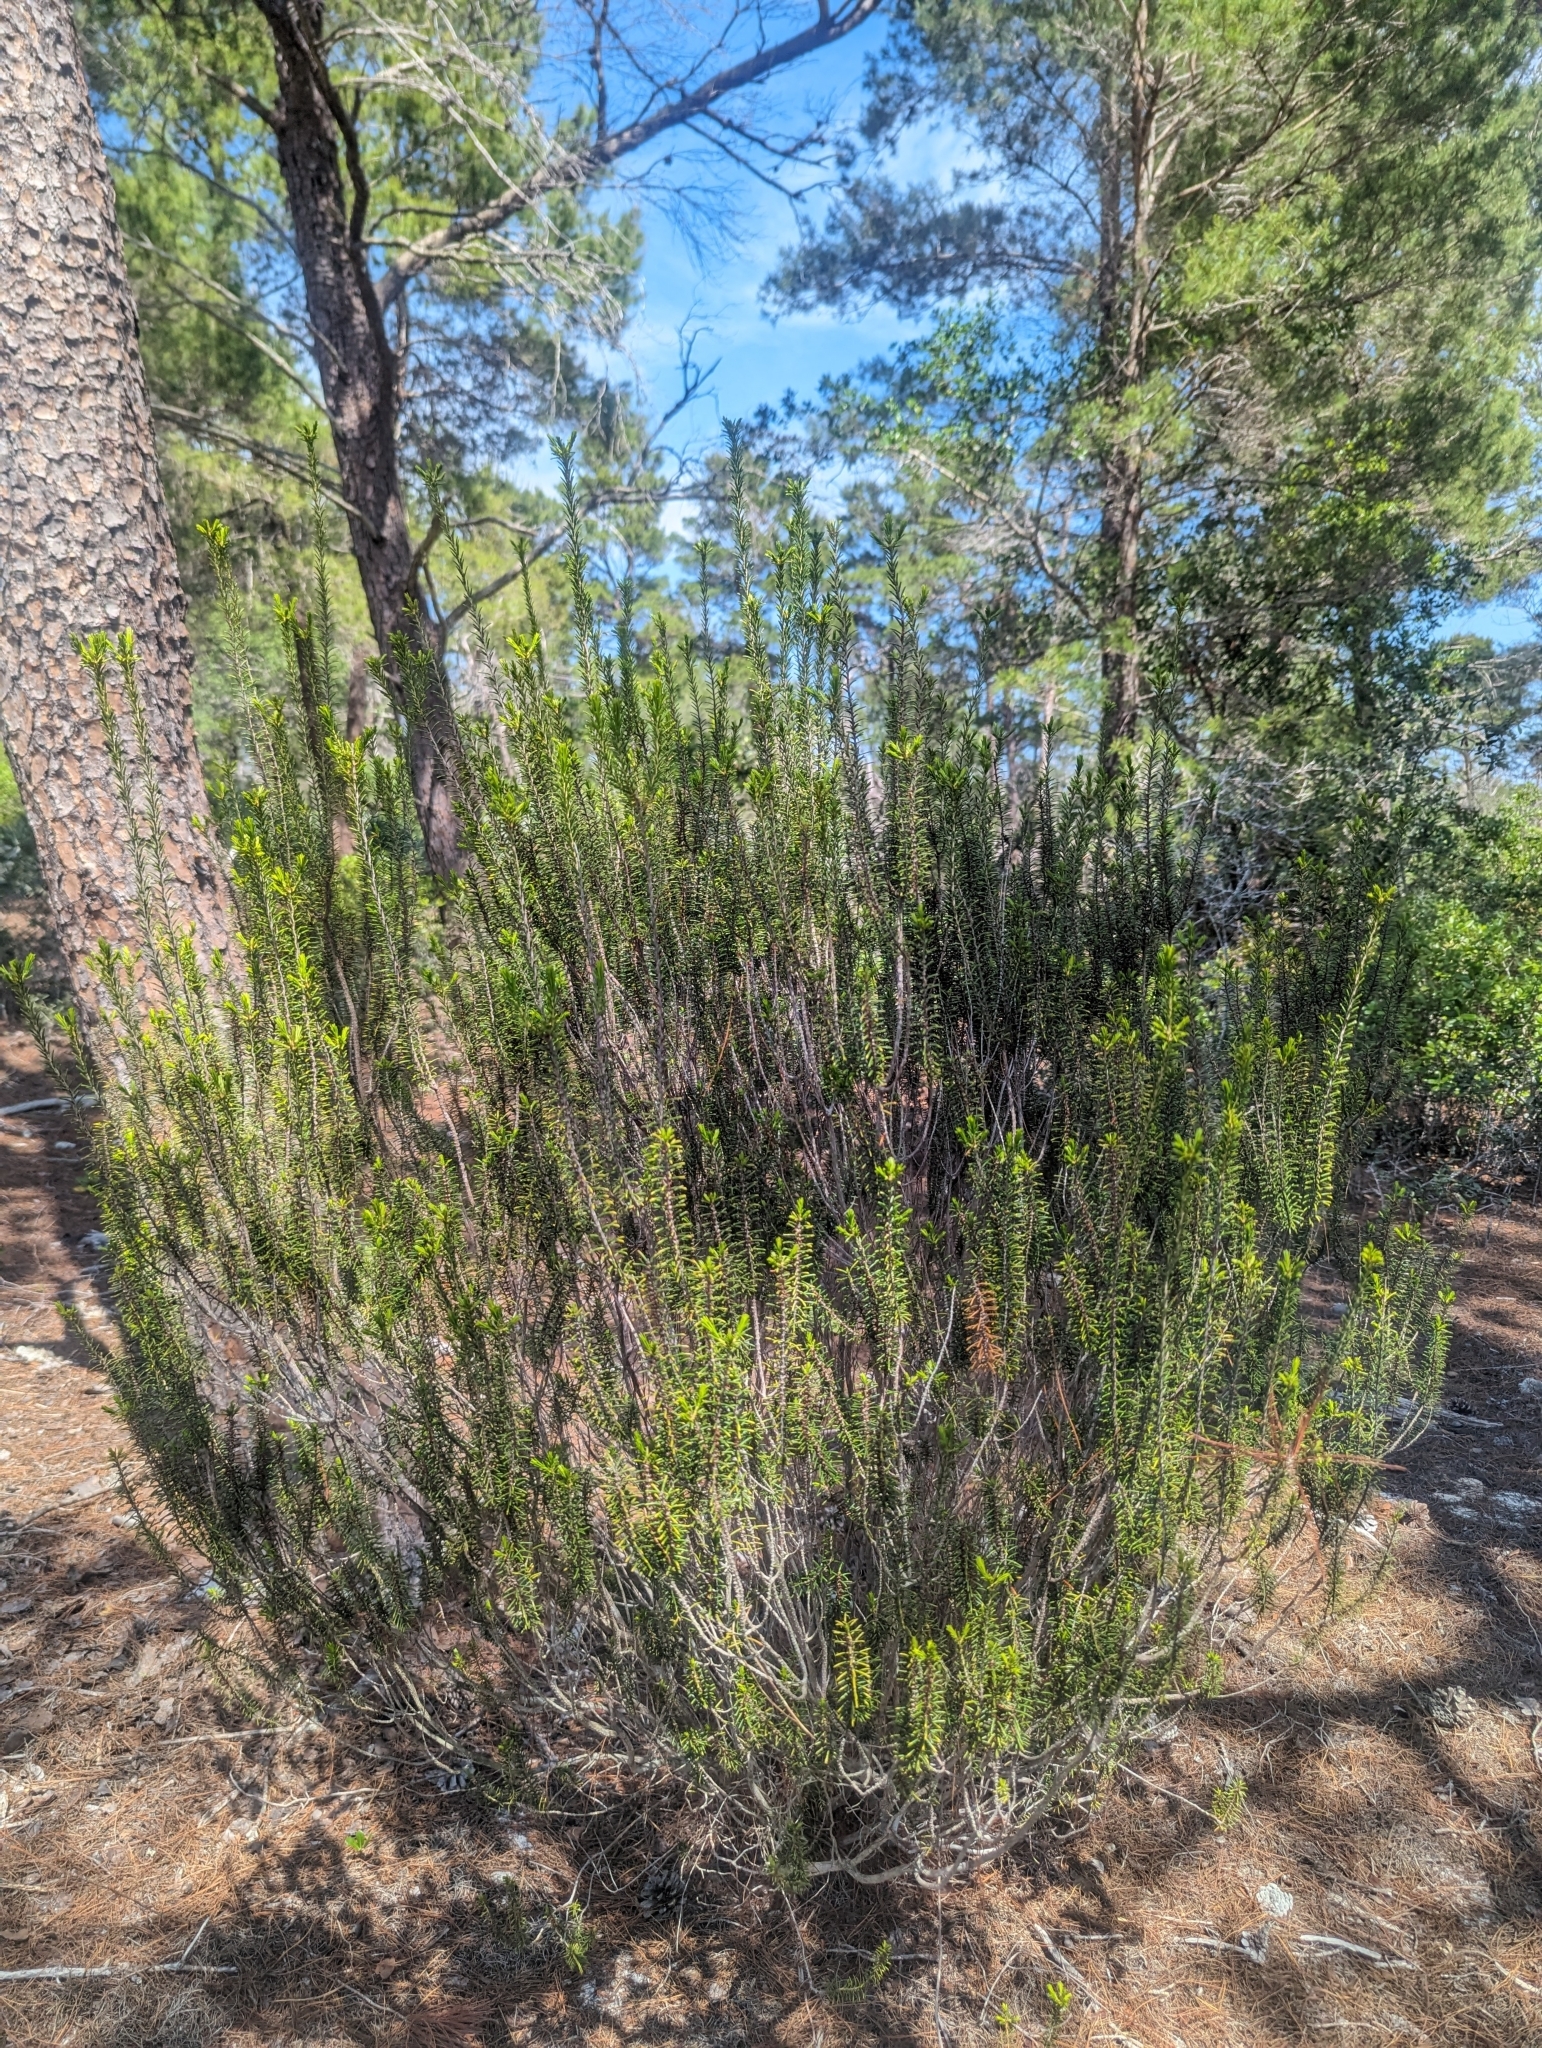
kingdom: Plantae
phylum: Tracheophyta
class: Magnoliopsida
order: Ericales
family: Ericaceae
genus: Ceratiola
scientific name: Ceratiola ericoides
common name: Sandhill-rosemary
